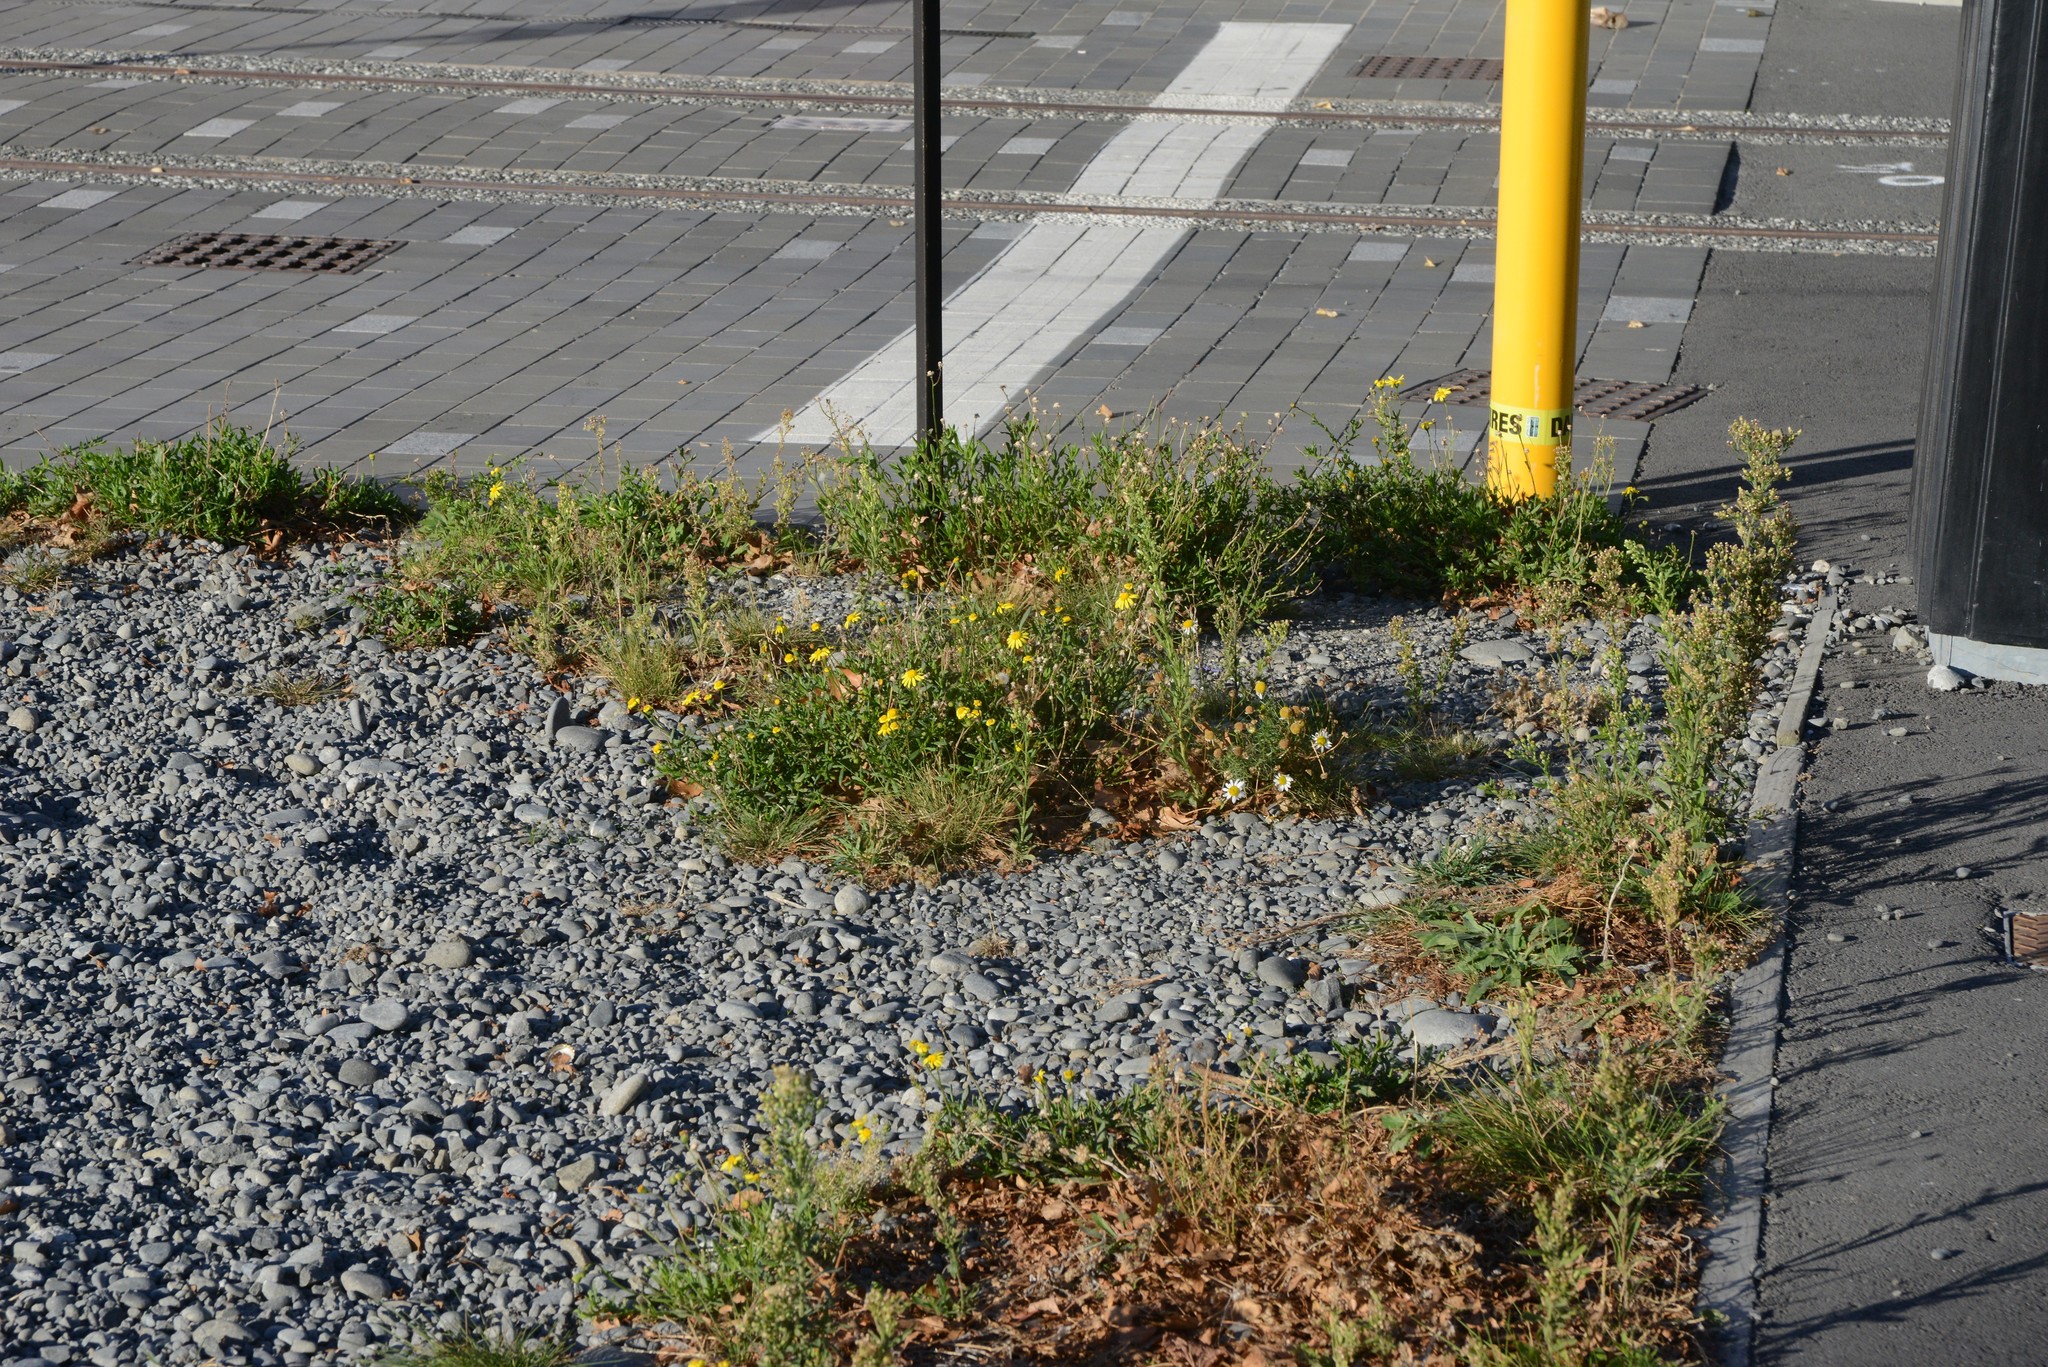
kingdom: Plantae
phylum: Tracheophyta
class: Magnoliopsida
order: Asterales
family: Asteraceae
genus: Senecio
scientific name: Senecio skirrhodon
